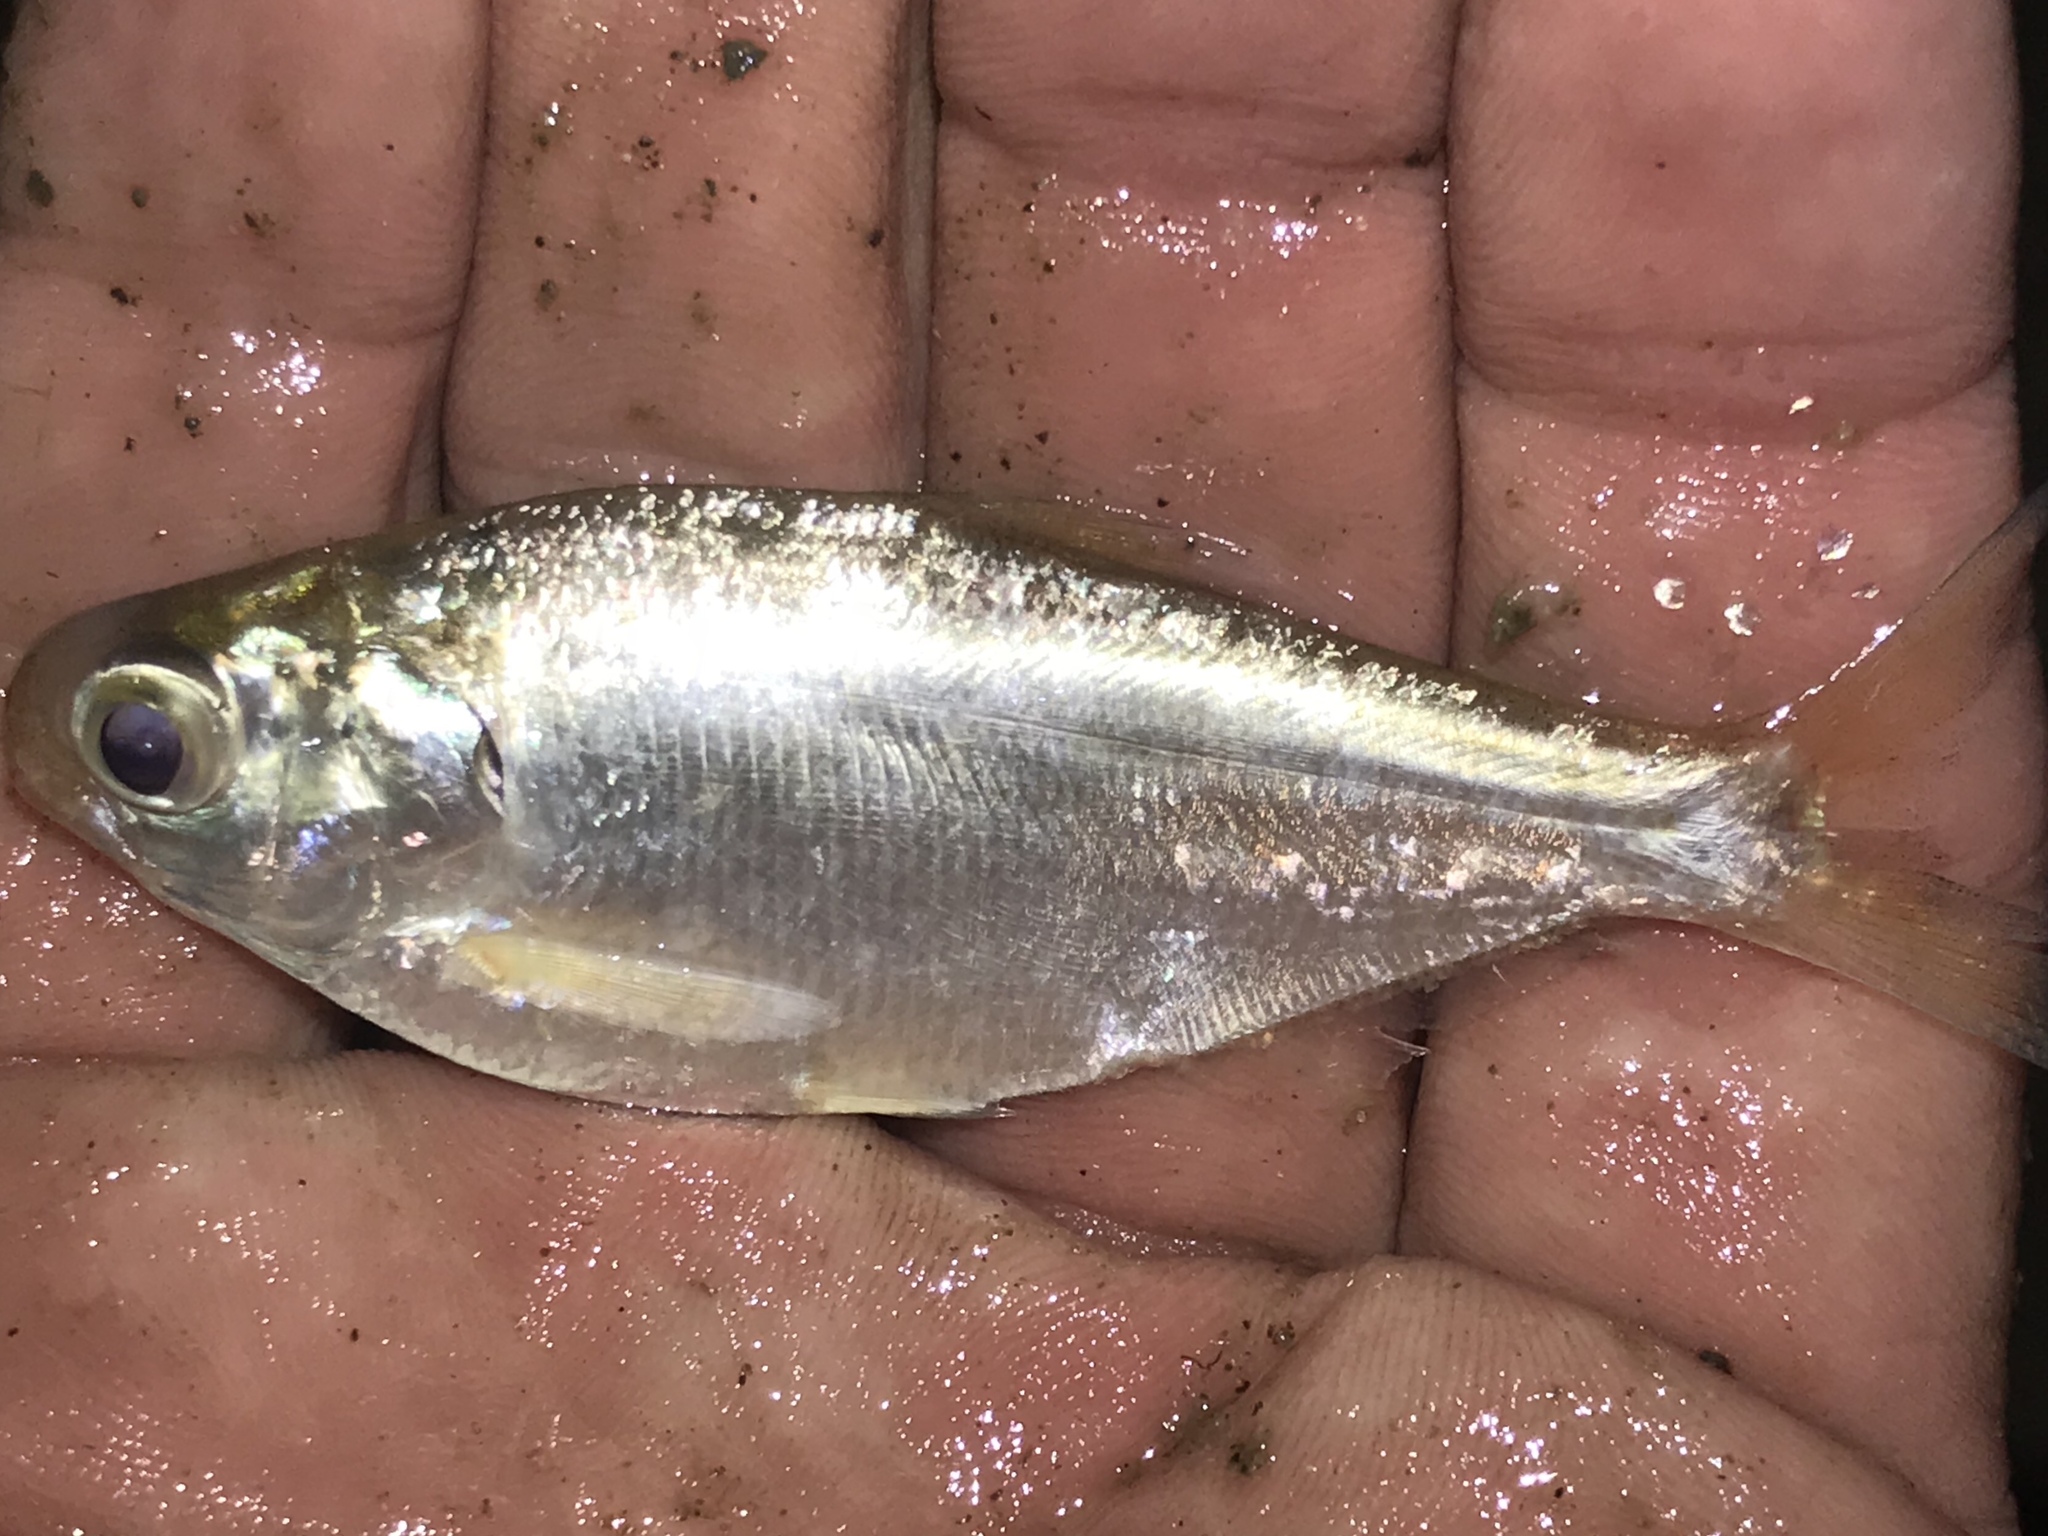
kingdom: Animalia
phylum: Chordata
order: Clupeiformes
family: Clupeidae
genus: Dorosoma
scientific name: Dorosoma cepedianum
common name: Gizzard shad
